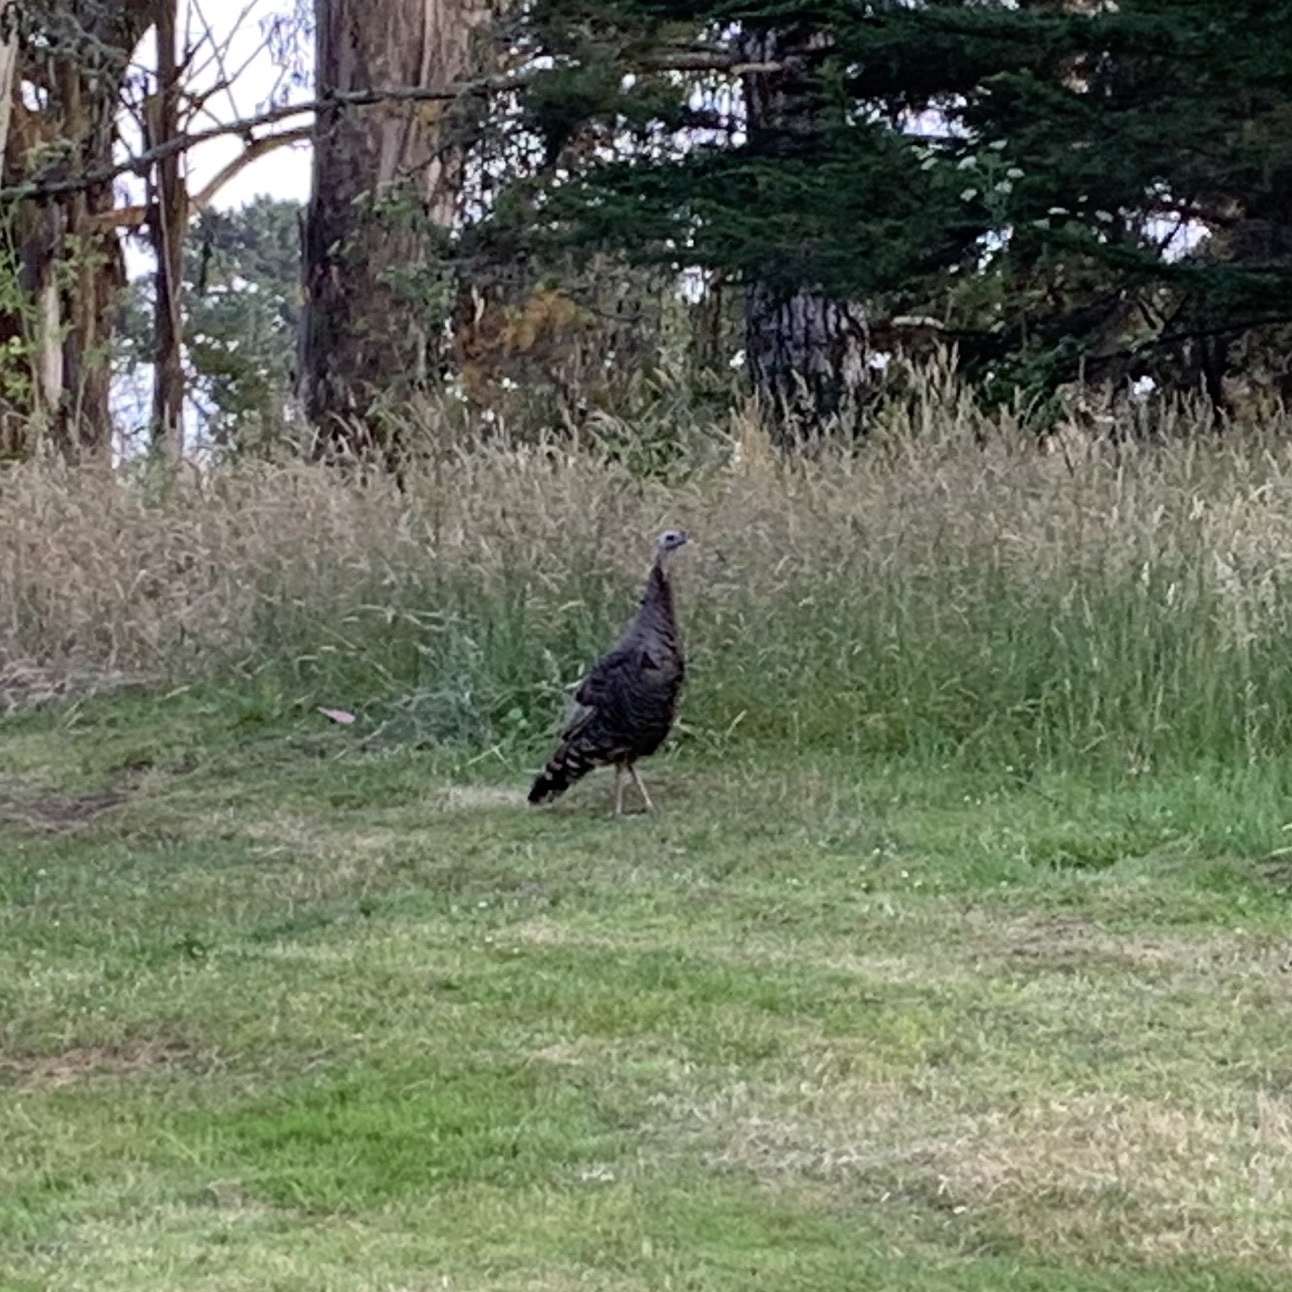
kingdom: Animalia
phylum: Chordata
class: Aves
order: Galliformes
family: Phasianidae
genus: Meleagris
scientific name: Meleagris gallopavo
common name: Wild turkey
